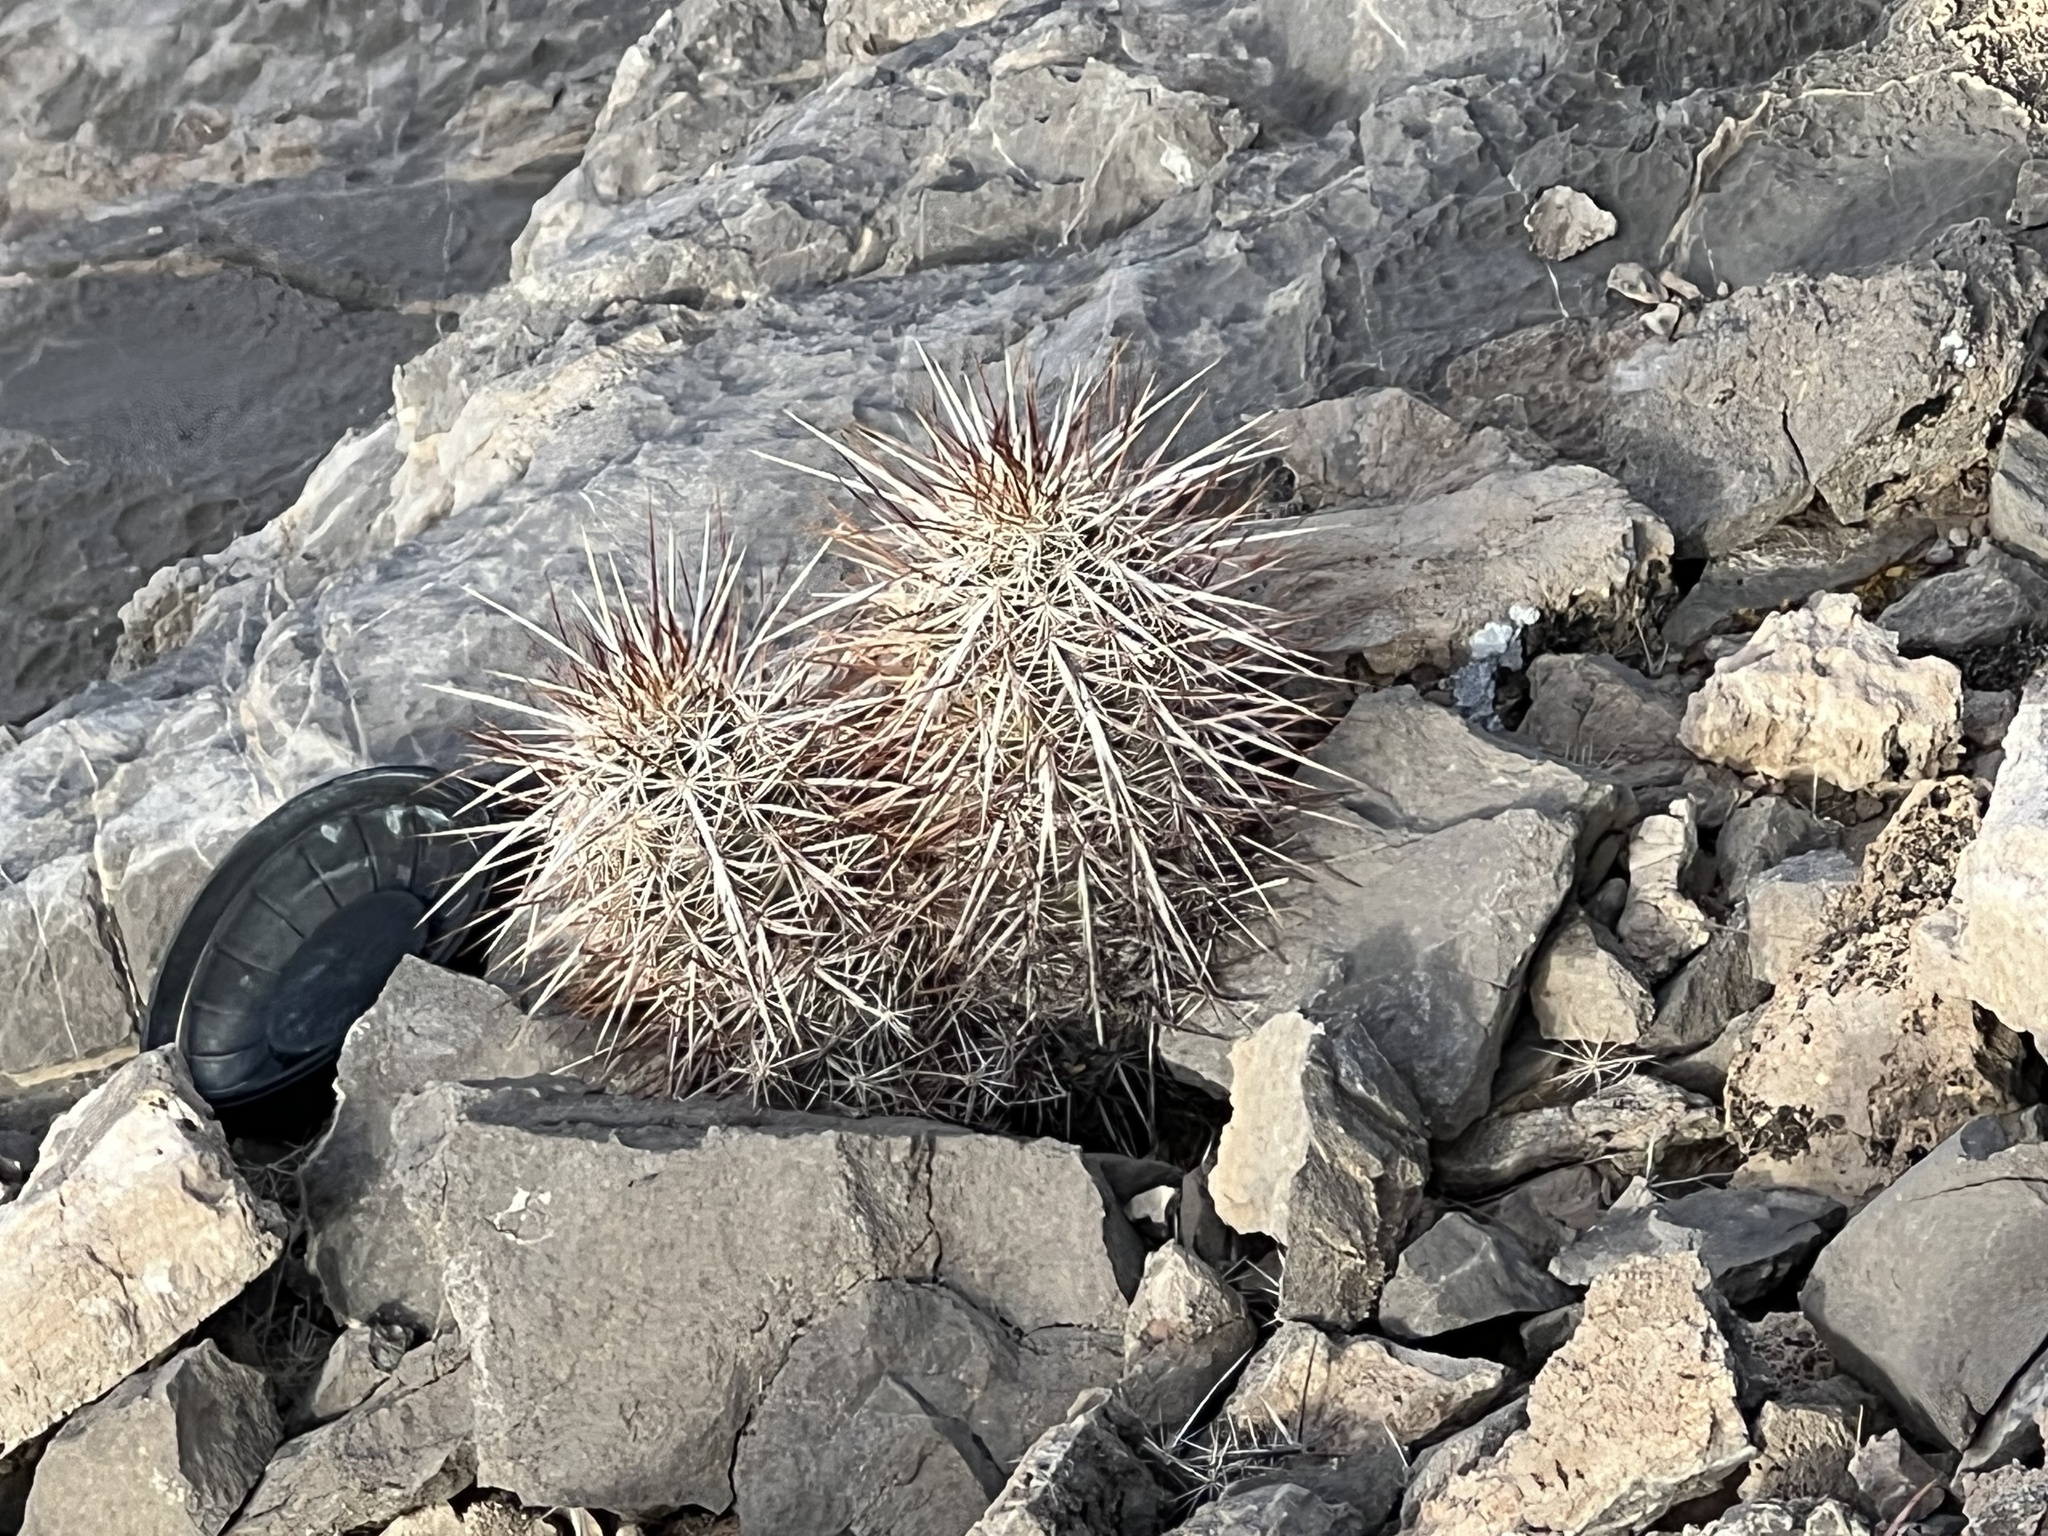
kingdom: Plantae
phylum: Tracheophyta
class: Magnoliopsida
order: Caryophyllales
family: Cactaceae
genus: Echinocereus
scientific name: Echinocereus engelmannii
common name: Engelmann's hedgehog cactus
